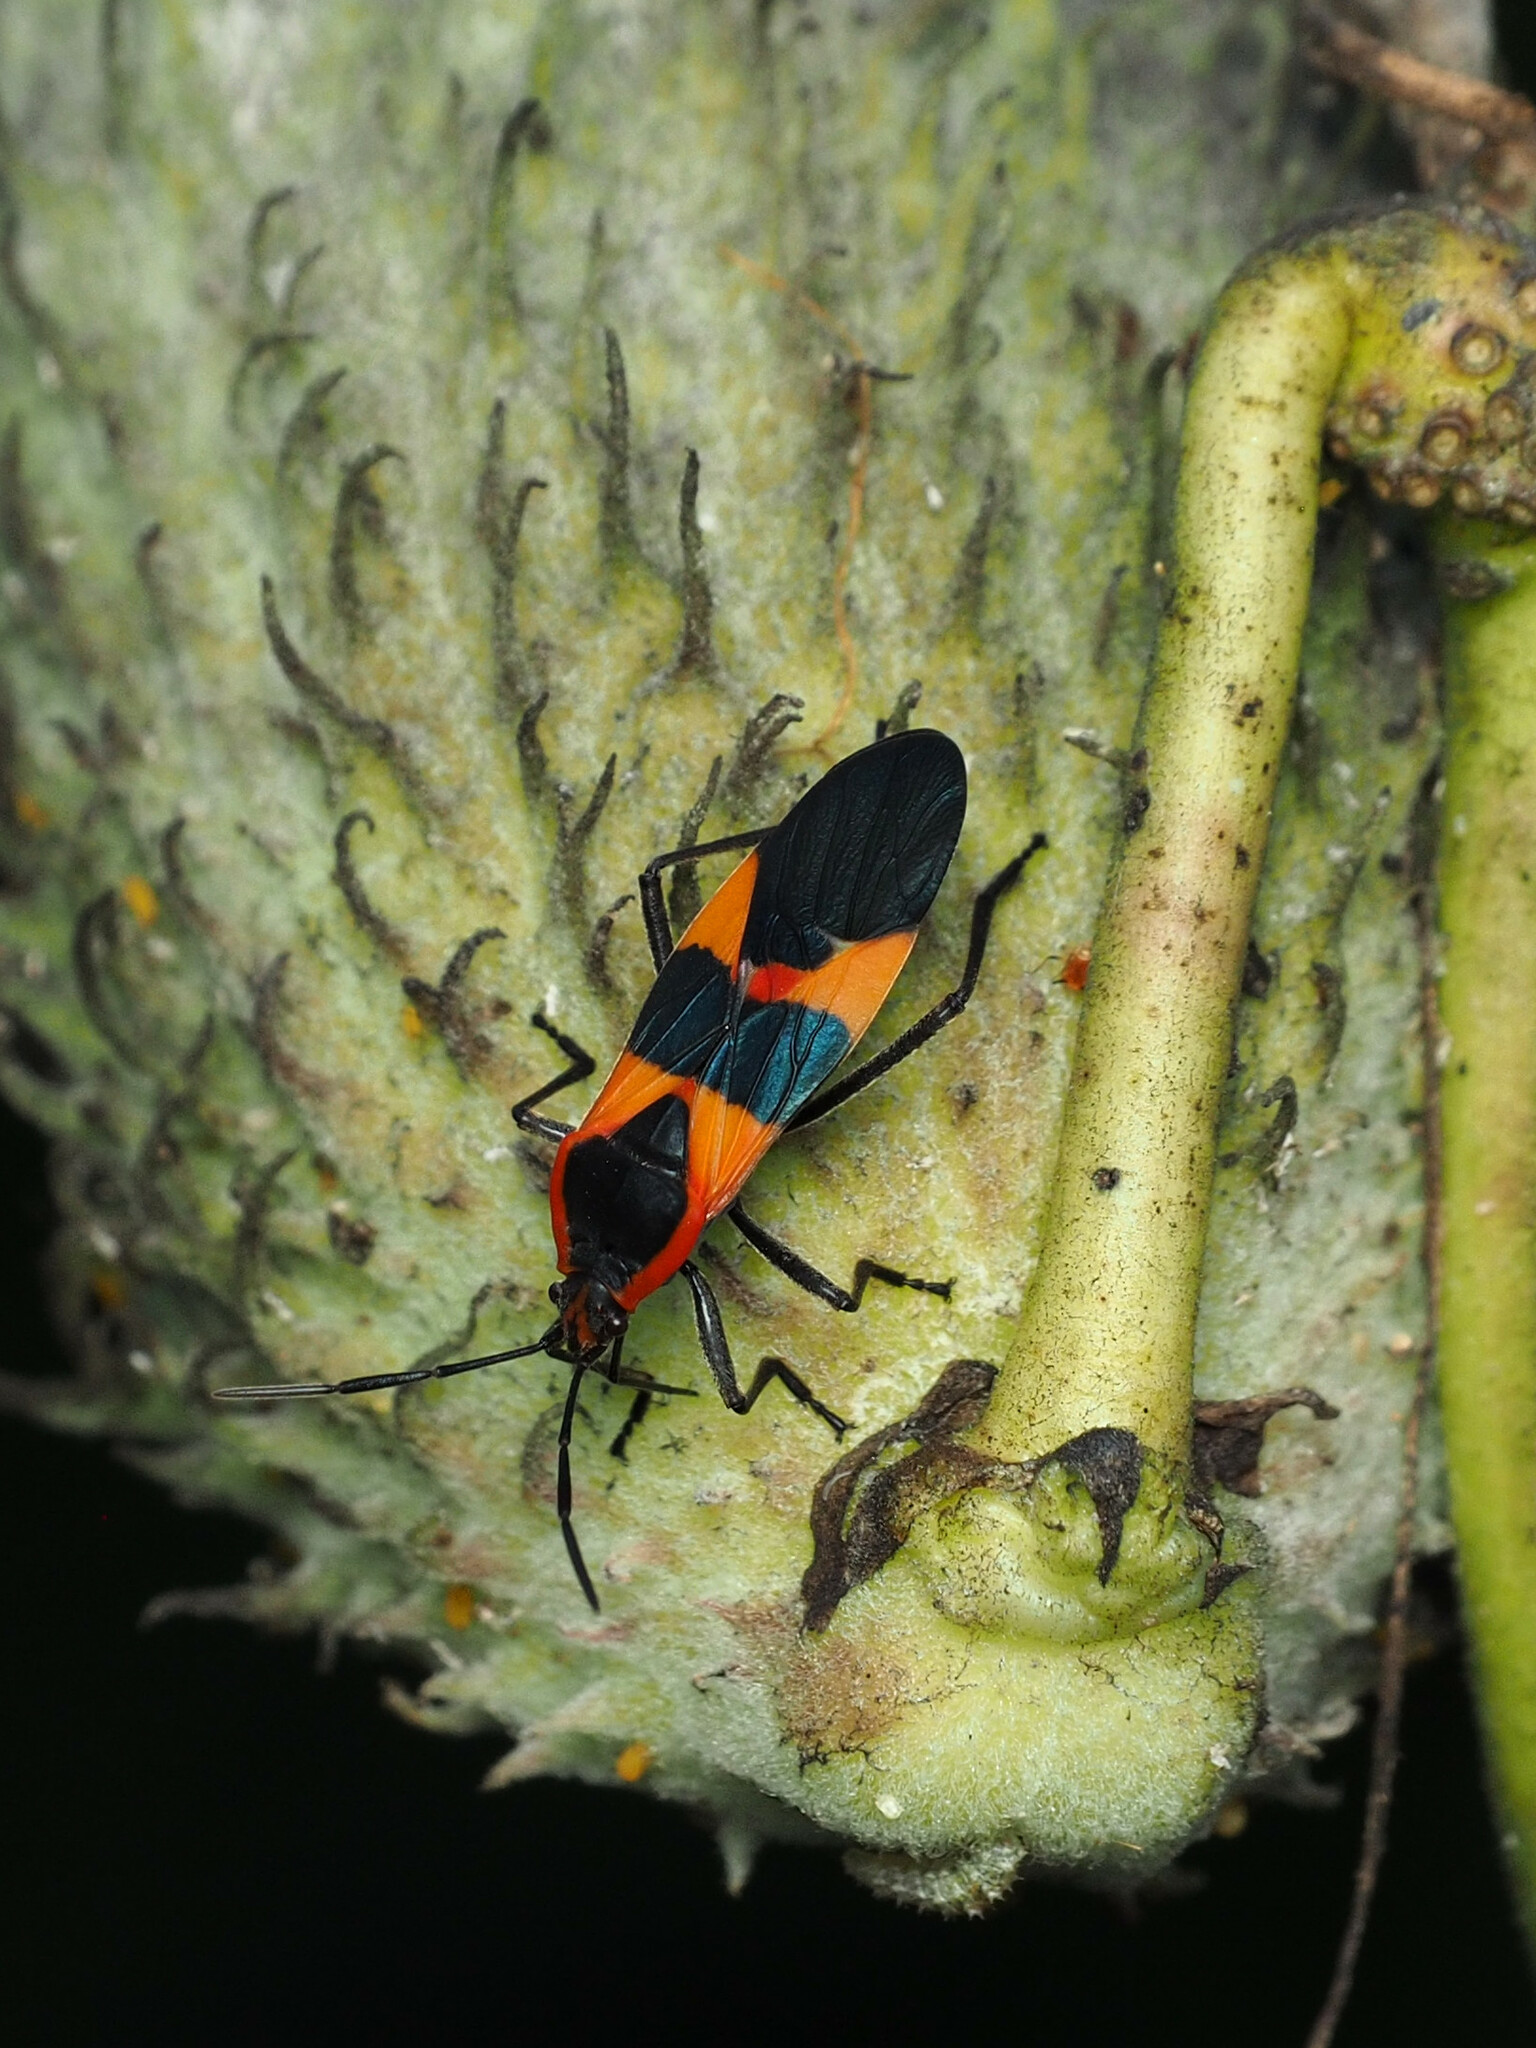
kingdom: Animalia
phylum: Arthropoda
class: Insecta
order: Hemiptera
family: Lygaeidae
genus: Oncopeltus
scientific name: Oncopeltus fasciatus
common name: Large milkweed bug
